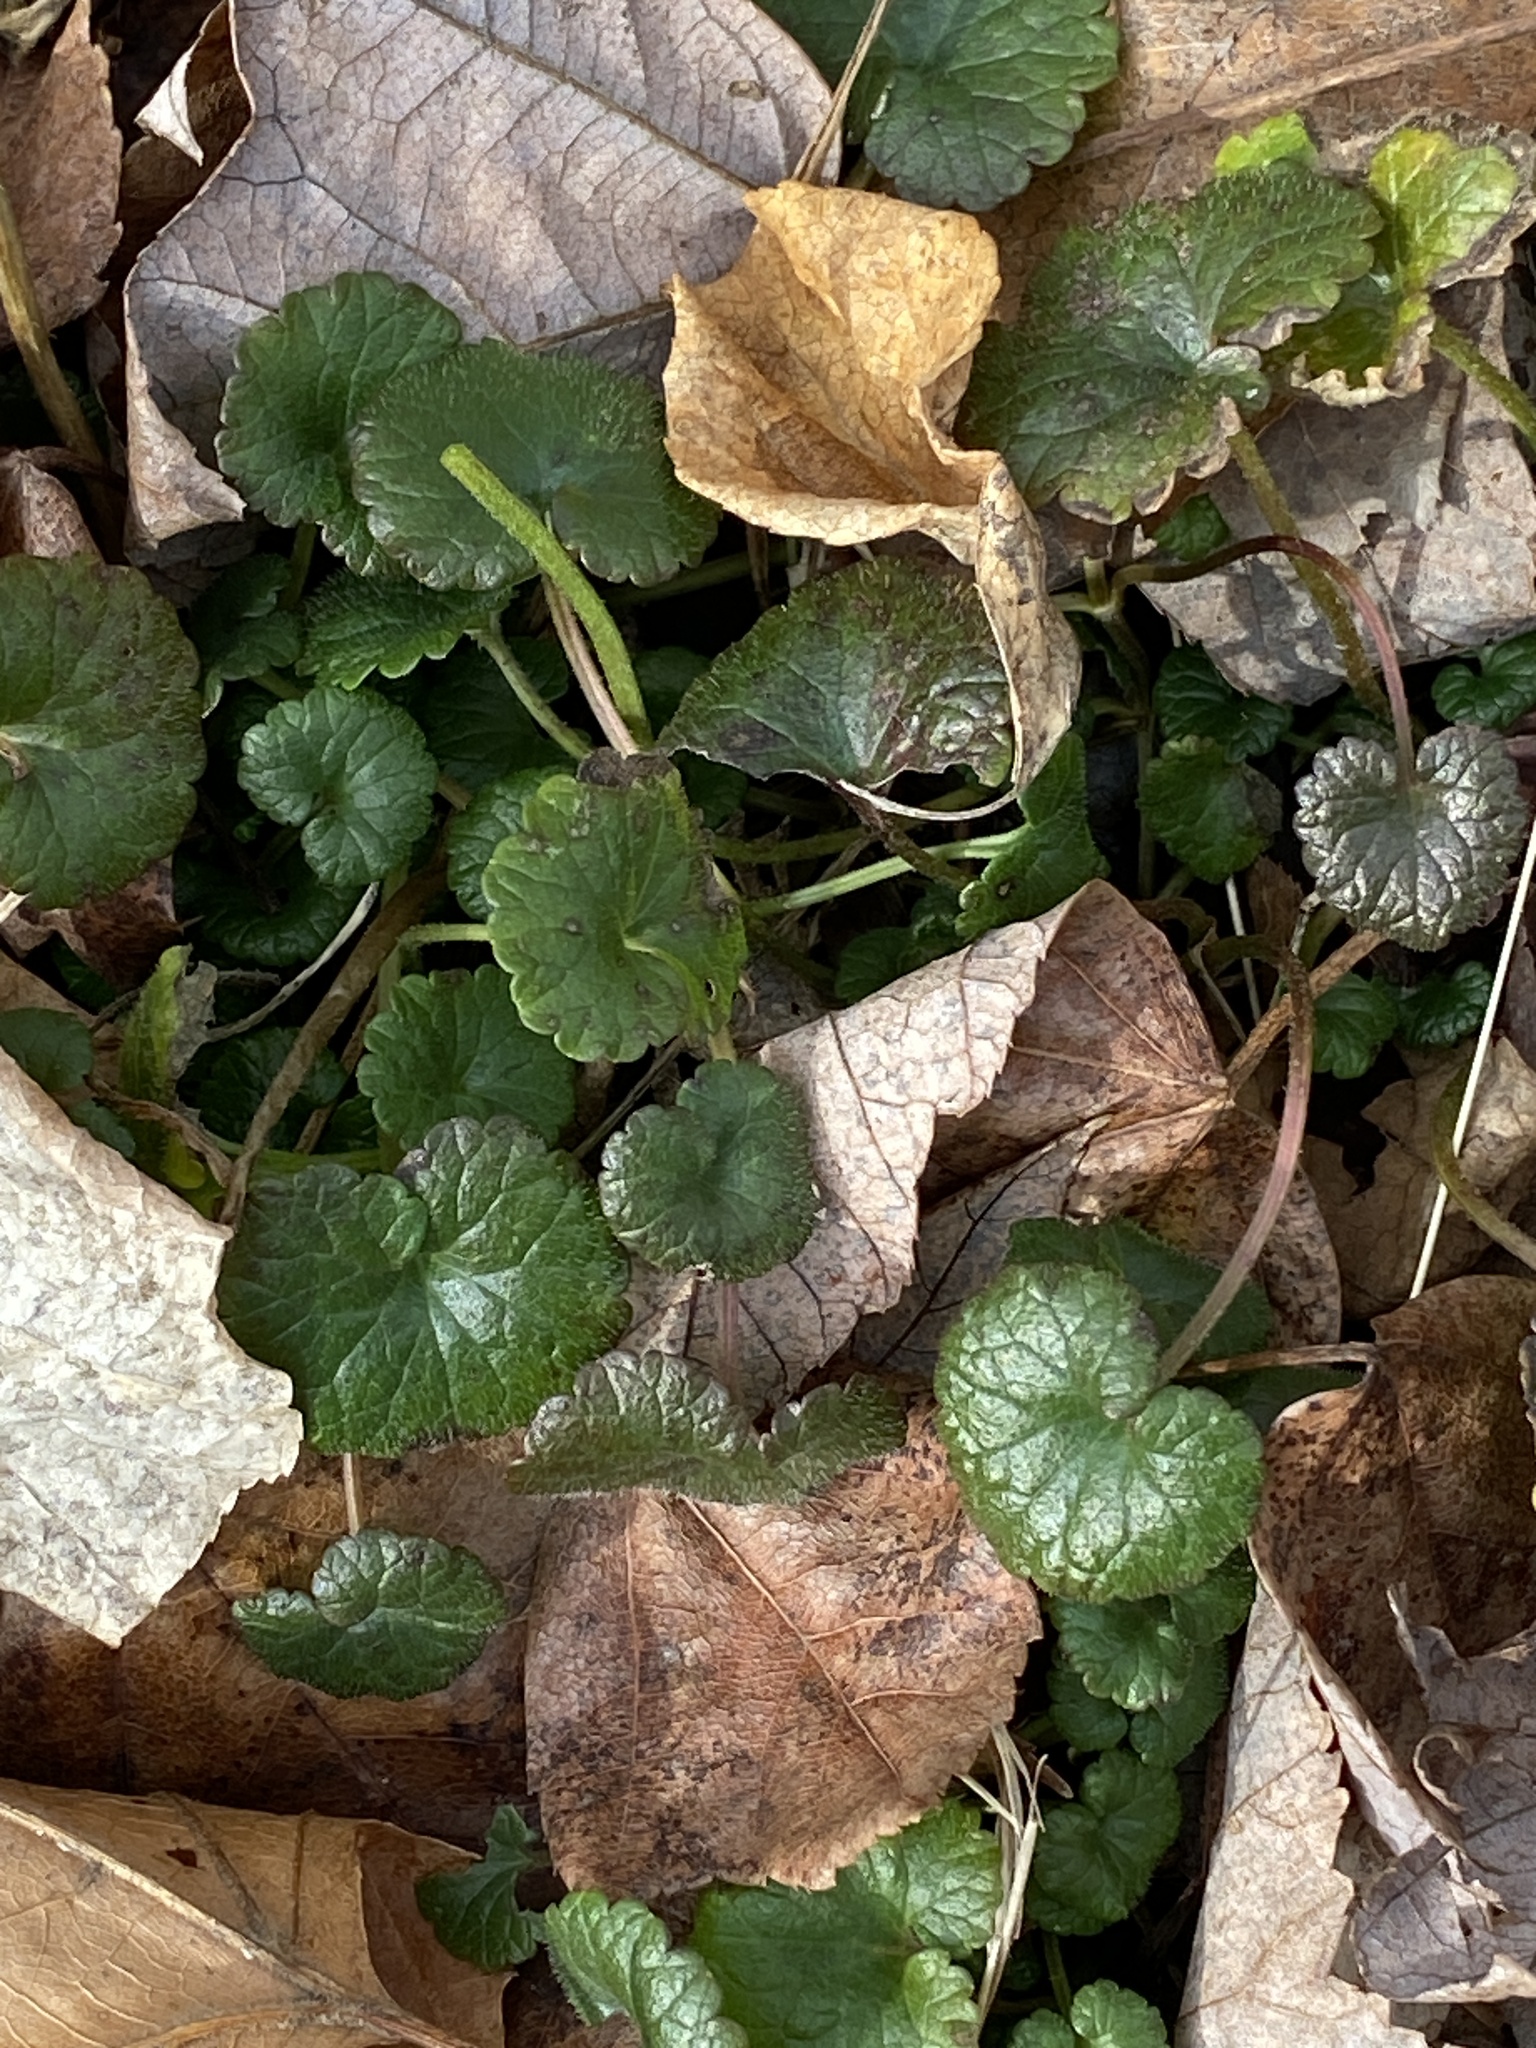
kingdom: Plantae
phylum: Tracheophyta
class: Magnoliopsida
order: Lamiales
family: Lamiaceae
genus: Glechoma
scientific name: Glechoma hederacea
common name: Ground ivy
